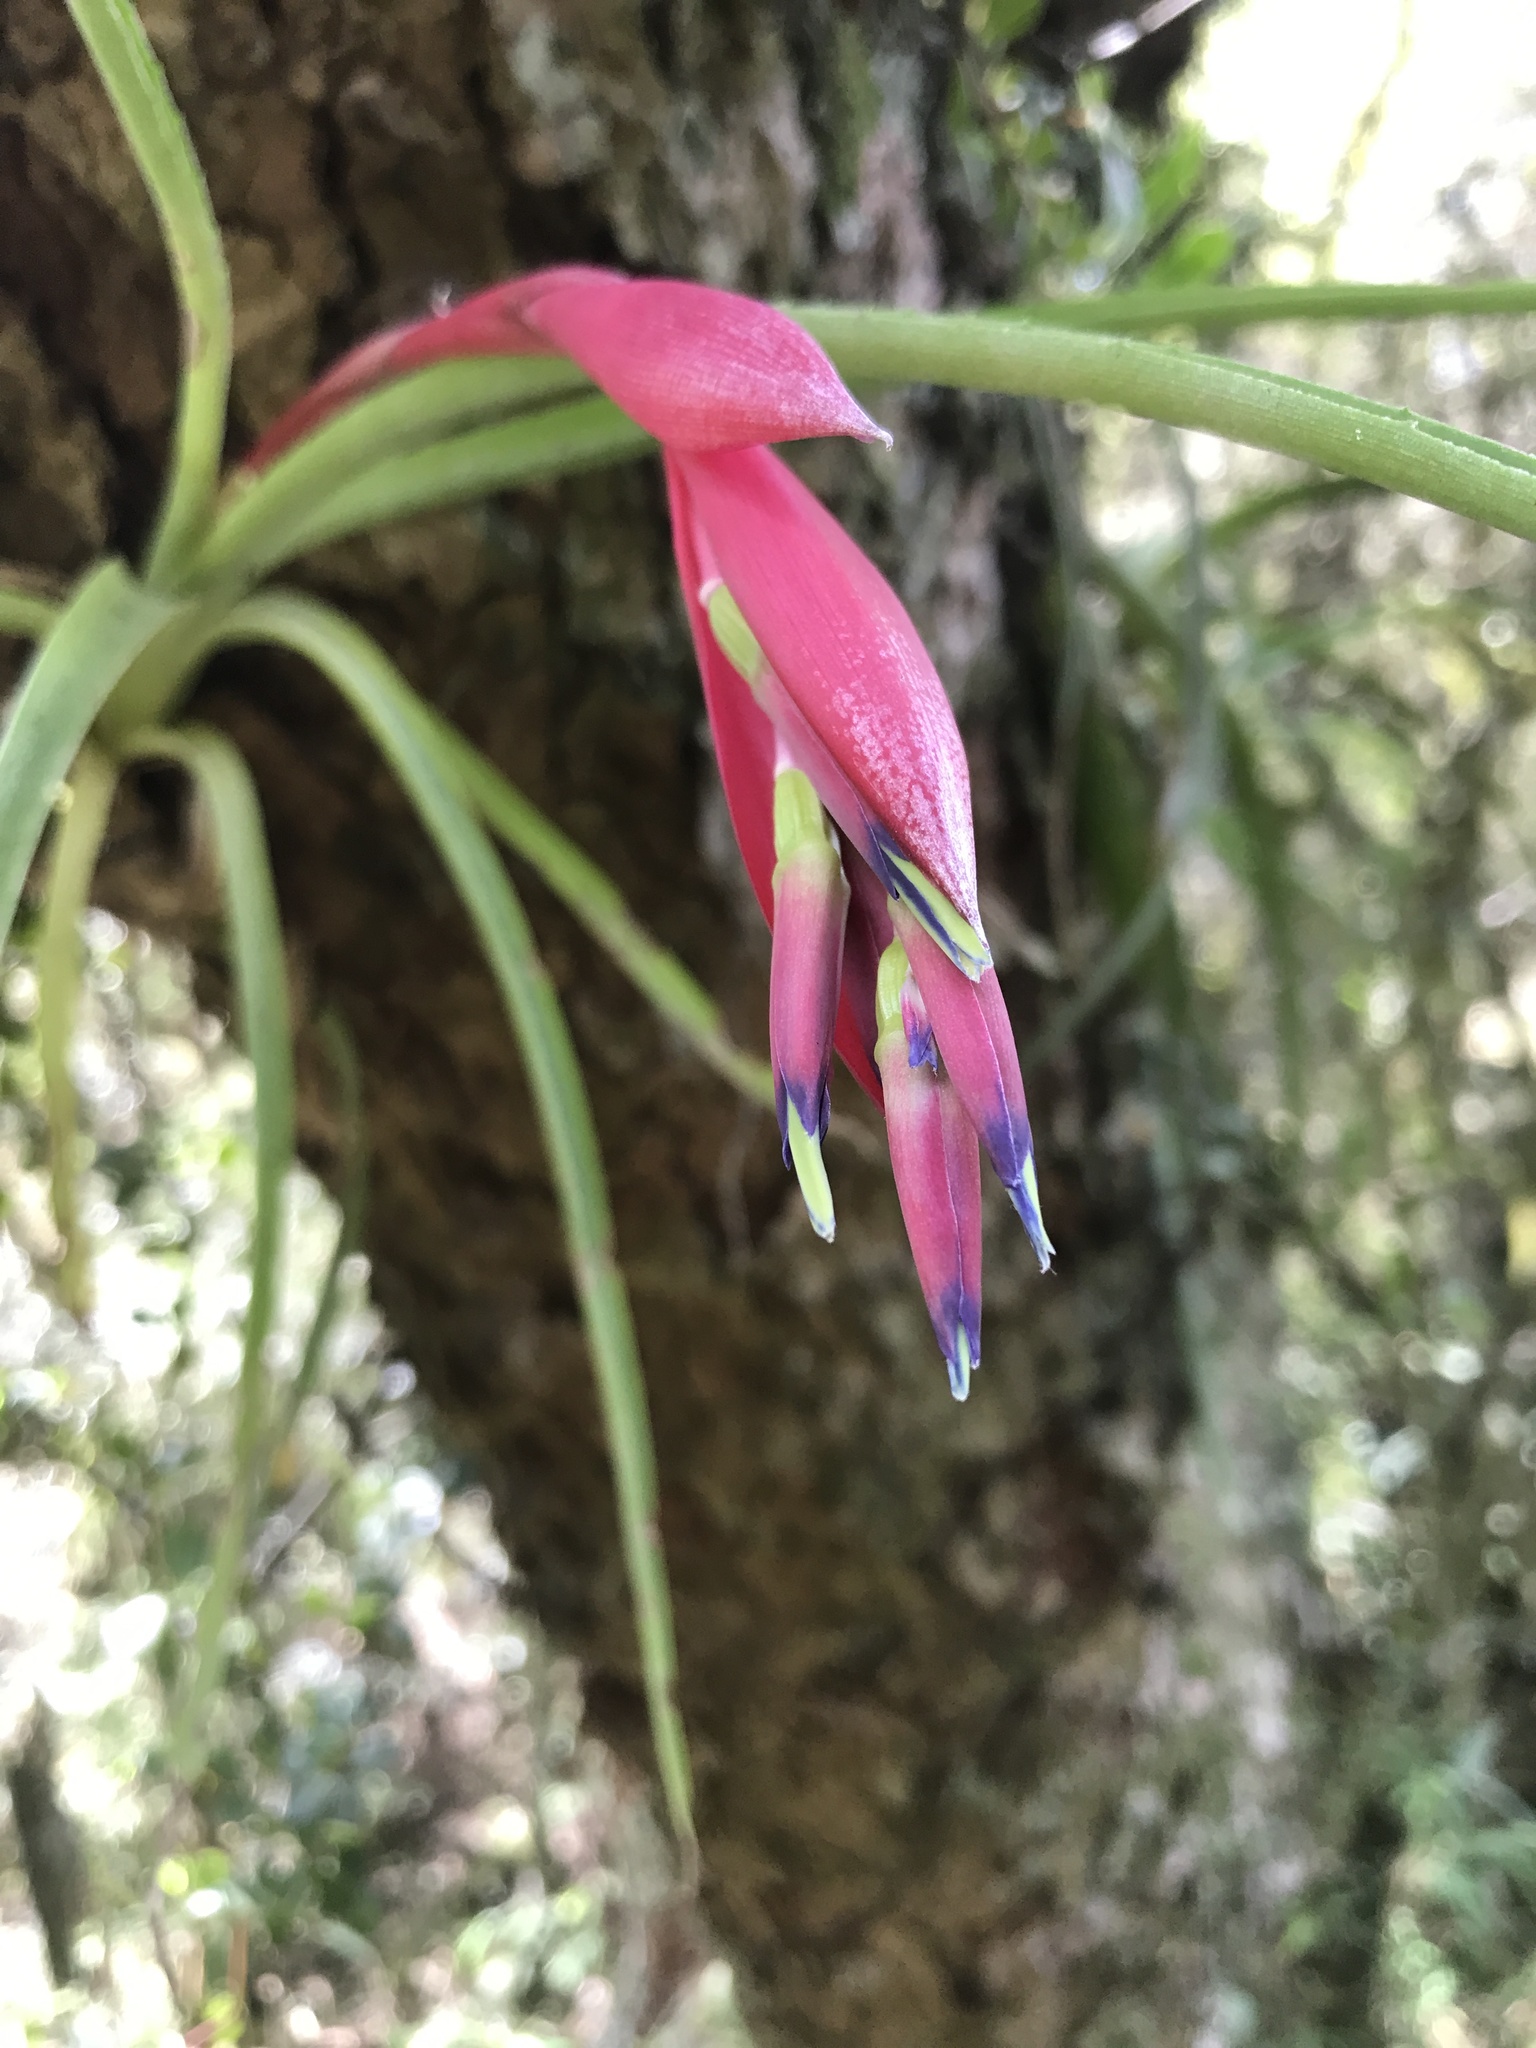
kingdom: Plantae
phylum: Tracheophyta
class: Liliopsida
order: Poales
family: Bromeliaceae
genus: Billbergia
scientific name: Billbergia nutans
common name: Friendship-plant
